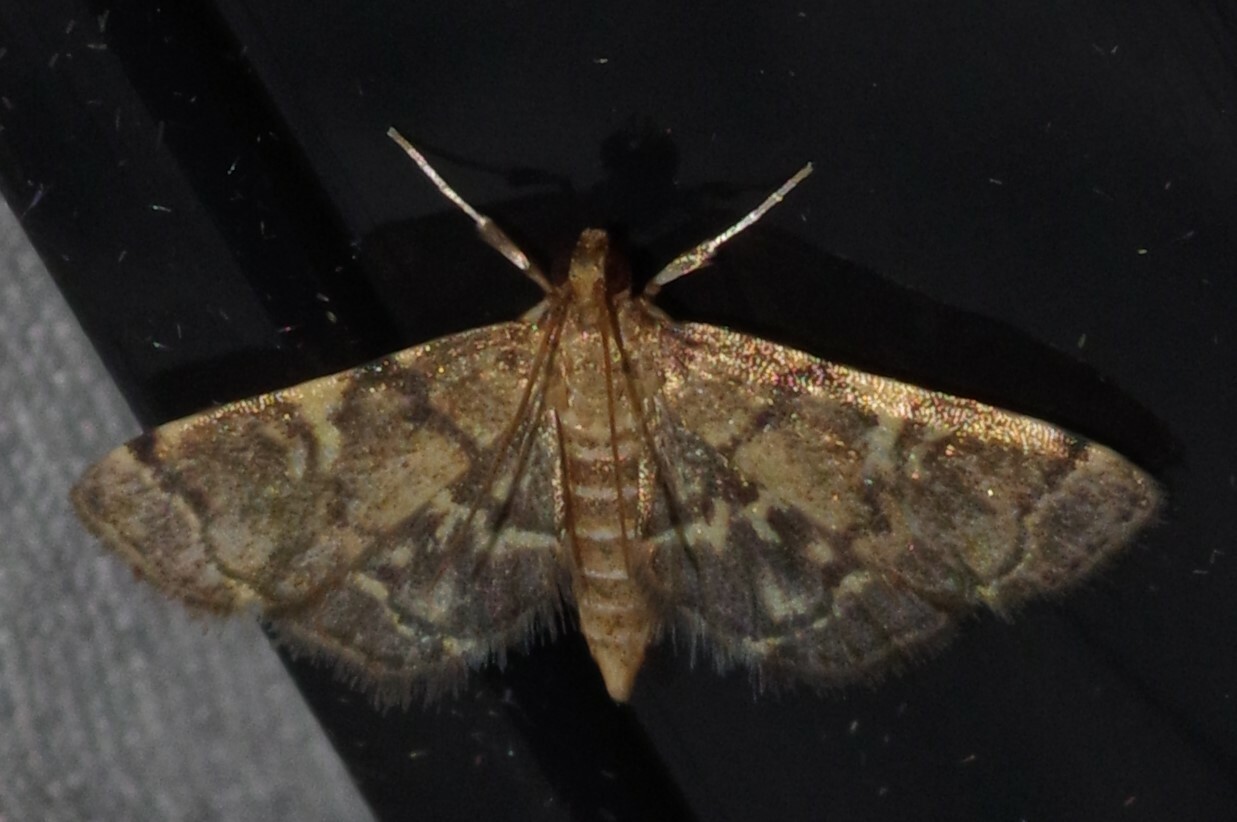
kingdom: Animalia
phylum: Arthropoda
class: Insecta
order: Lepidoptera
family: Crambidae
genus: Anageshna
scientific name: Anageshna primordialis
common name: Yellow-spotted webworm moth
